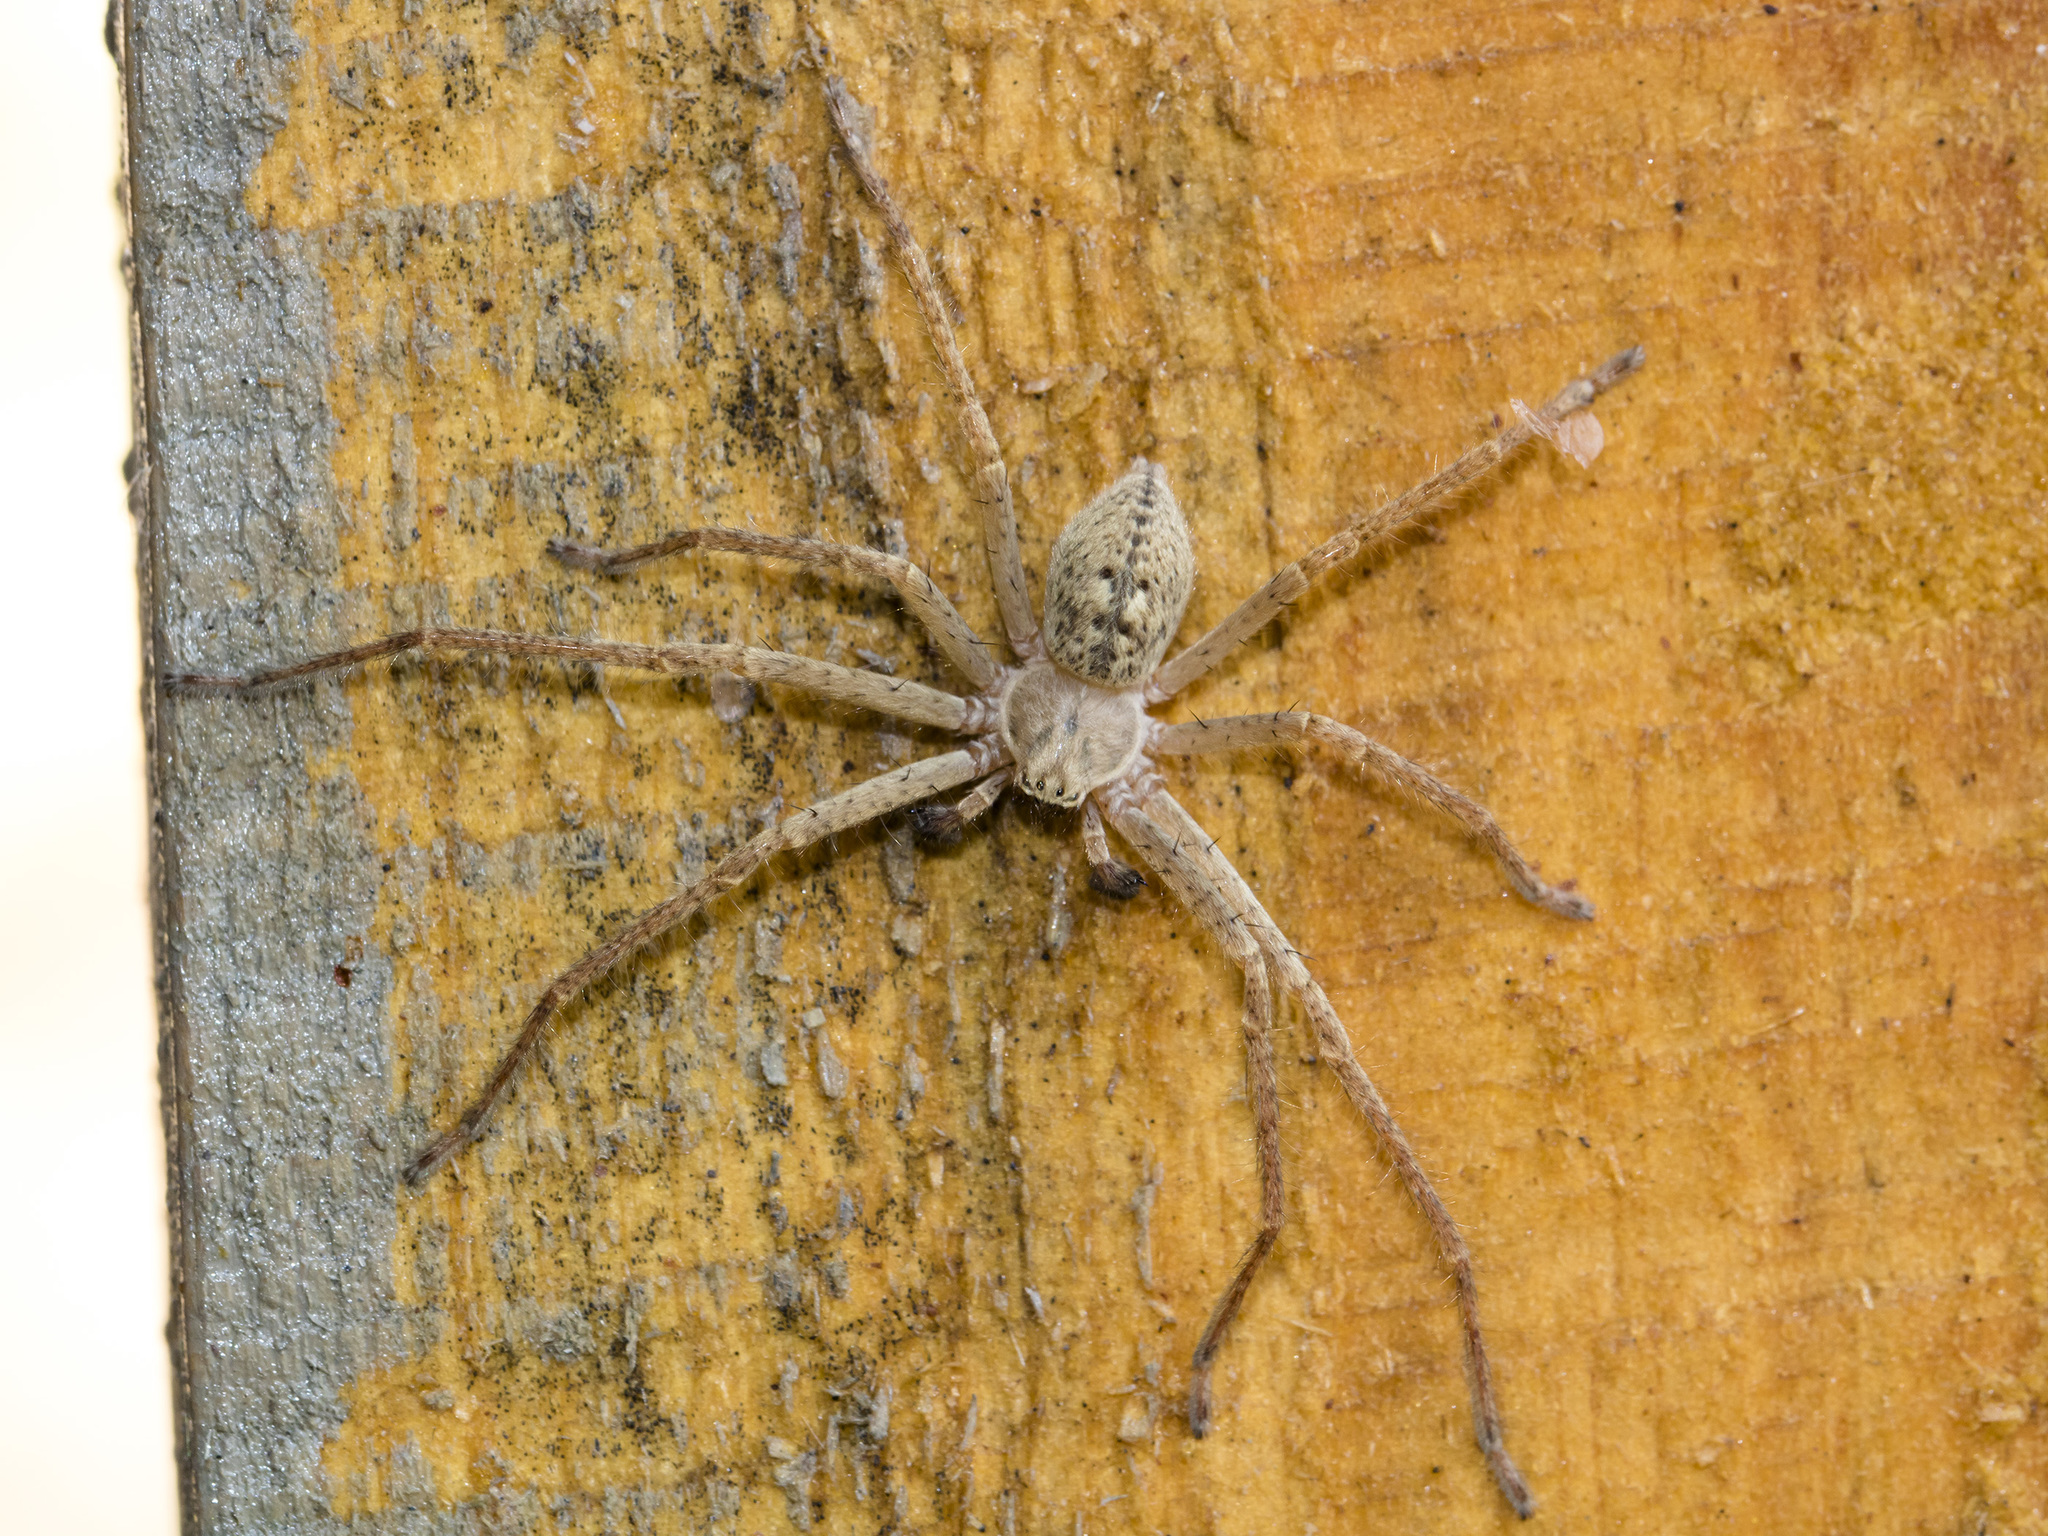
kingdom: Animalia
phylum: Arthropoda
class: Arachnida
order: Araneae
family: Sparassidae
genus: Olios
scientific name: Olios sericeus
